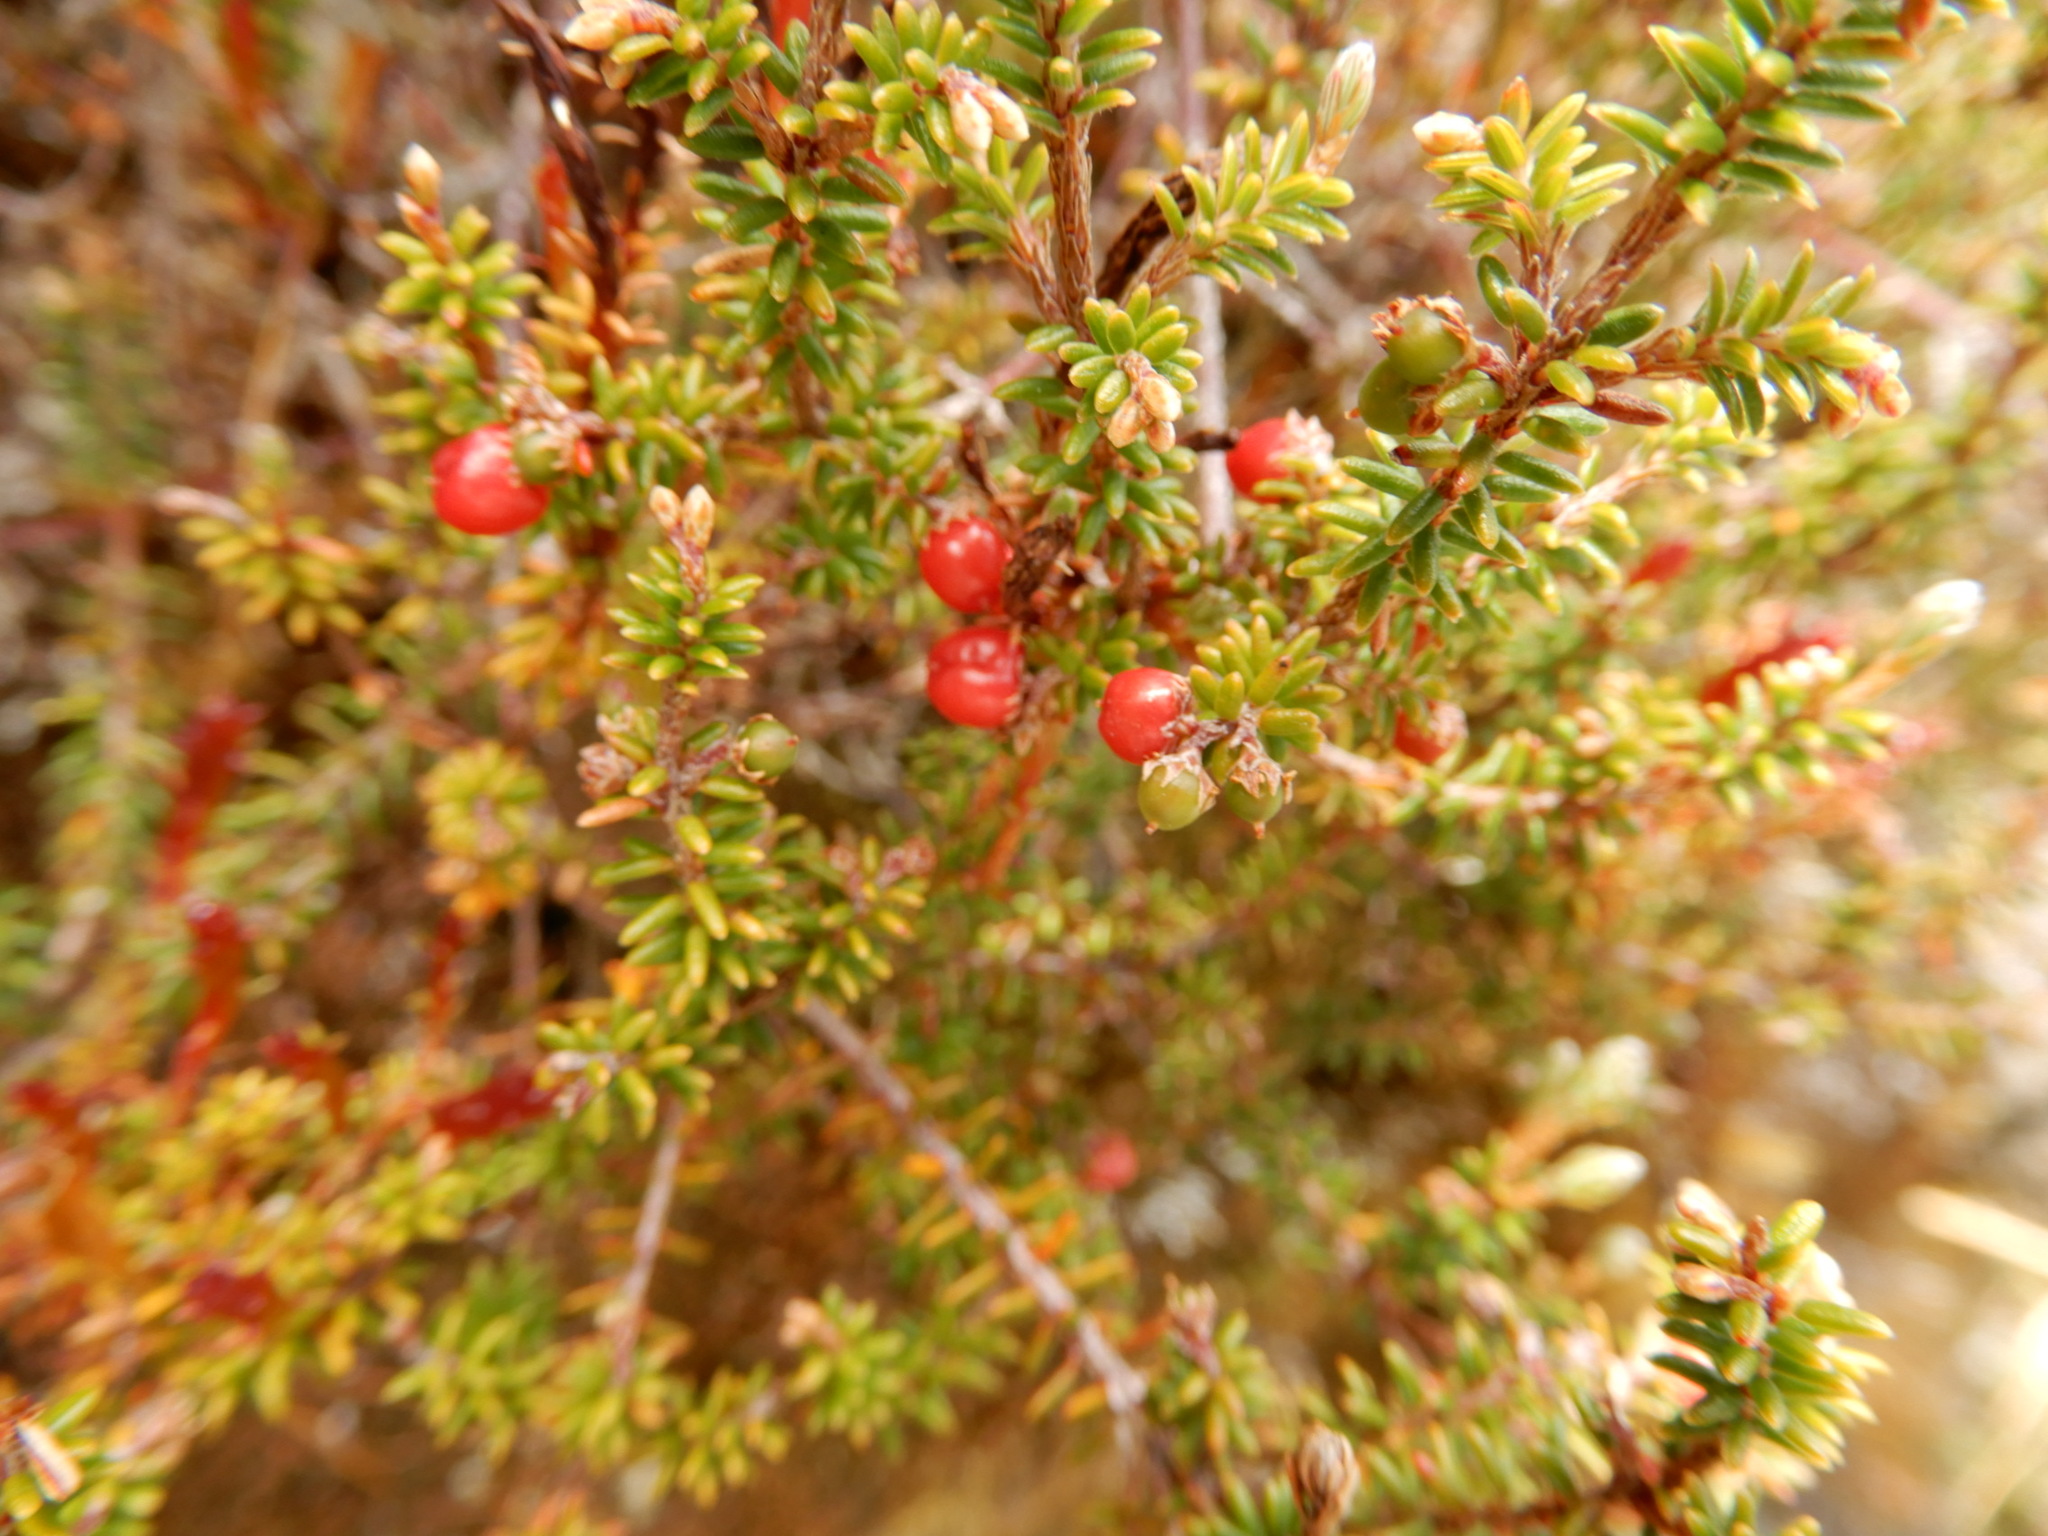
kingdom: Plantae
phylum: Tracheophyta
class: Magnoliopsida
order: Ericales
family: Ericaceae
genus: Androstoma
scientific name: Androstoma empetrifolia
